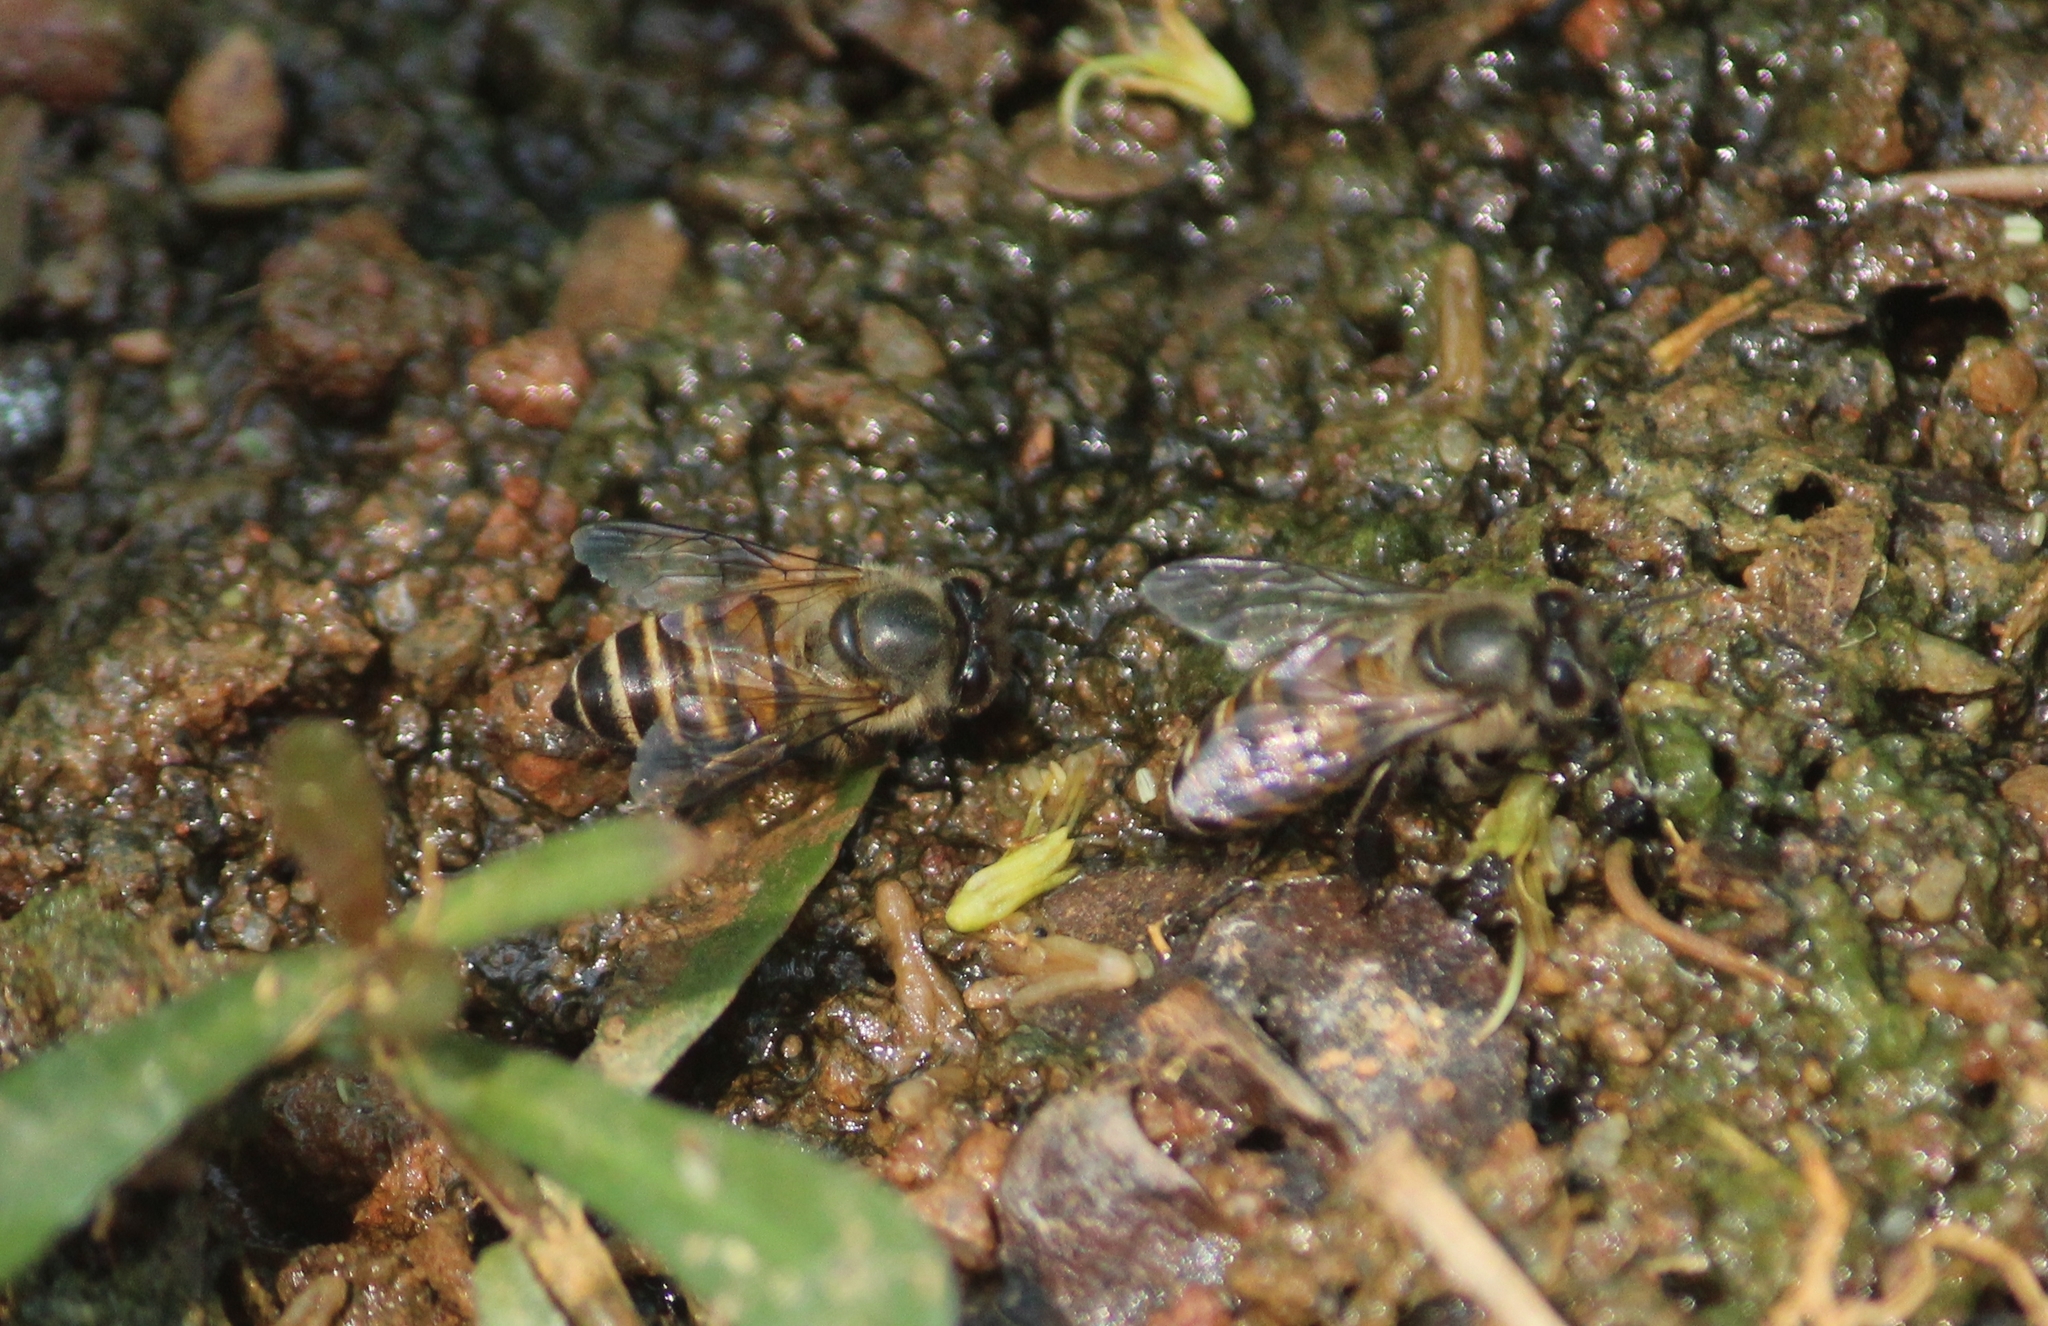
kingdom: Animalia
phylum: Arthropoda
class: Insecta
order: Hymenoptera
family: Apidae
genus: Apis
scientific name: Apis cerana
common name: Honey bee
